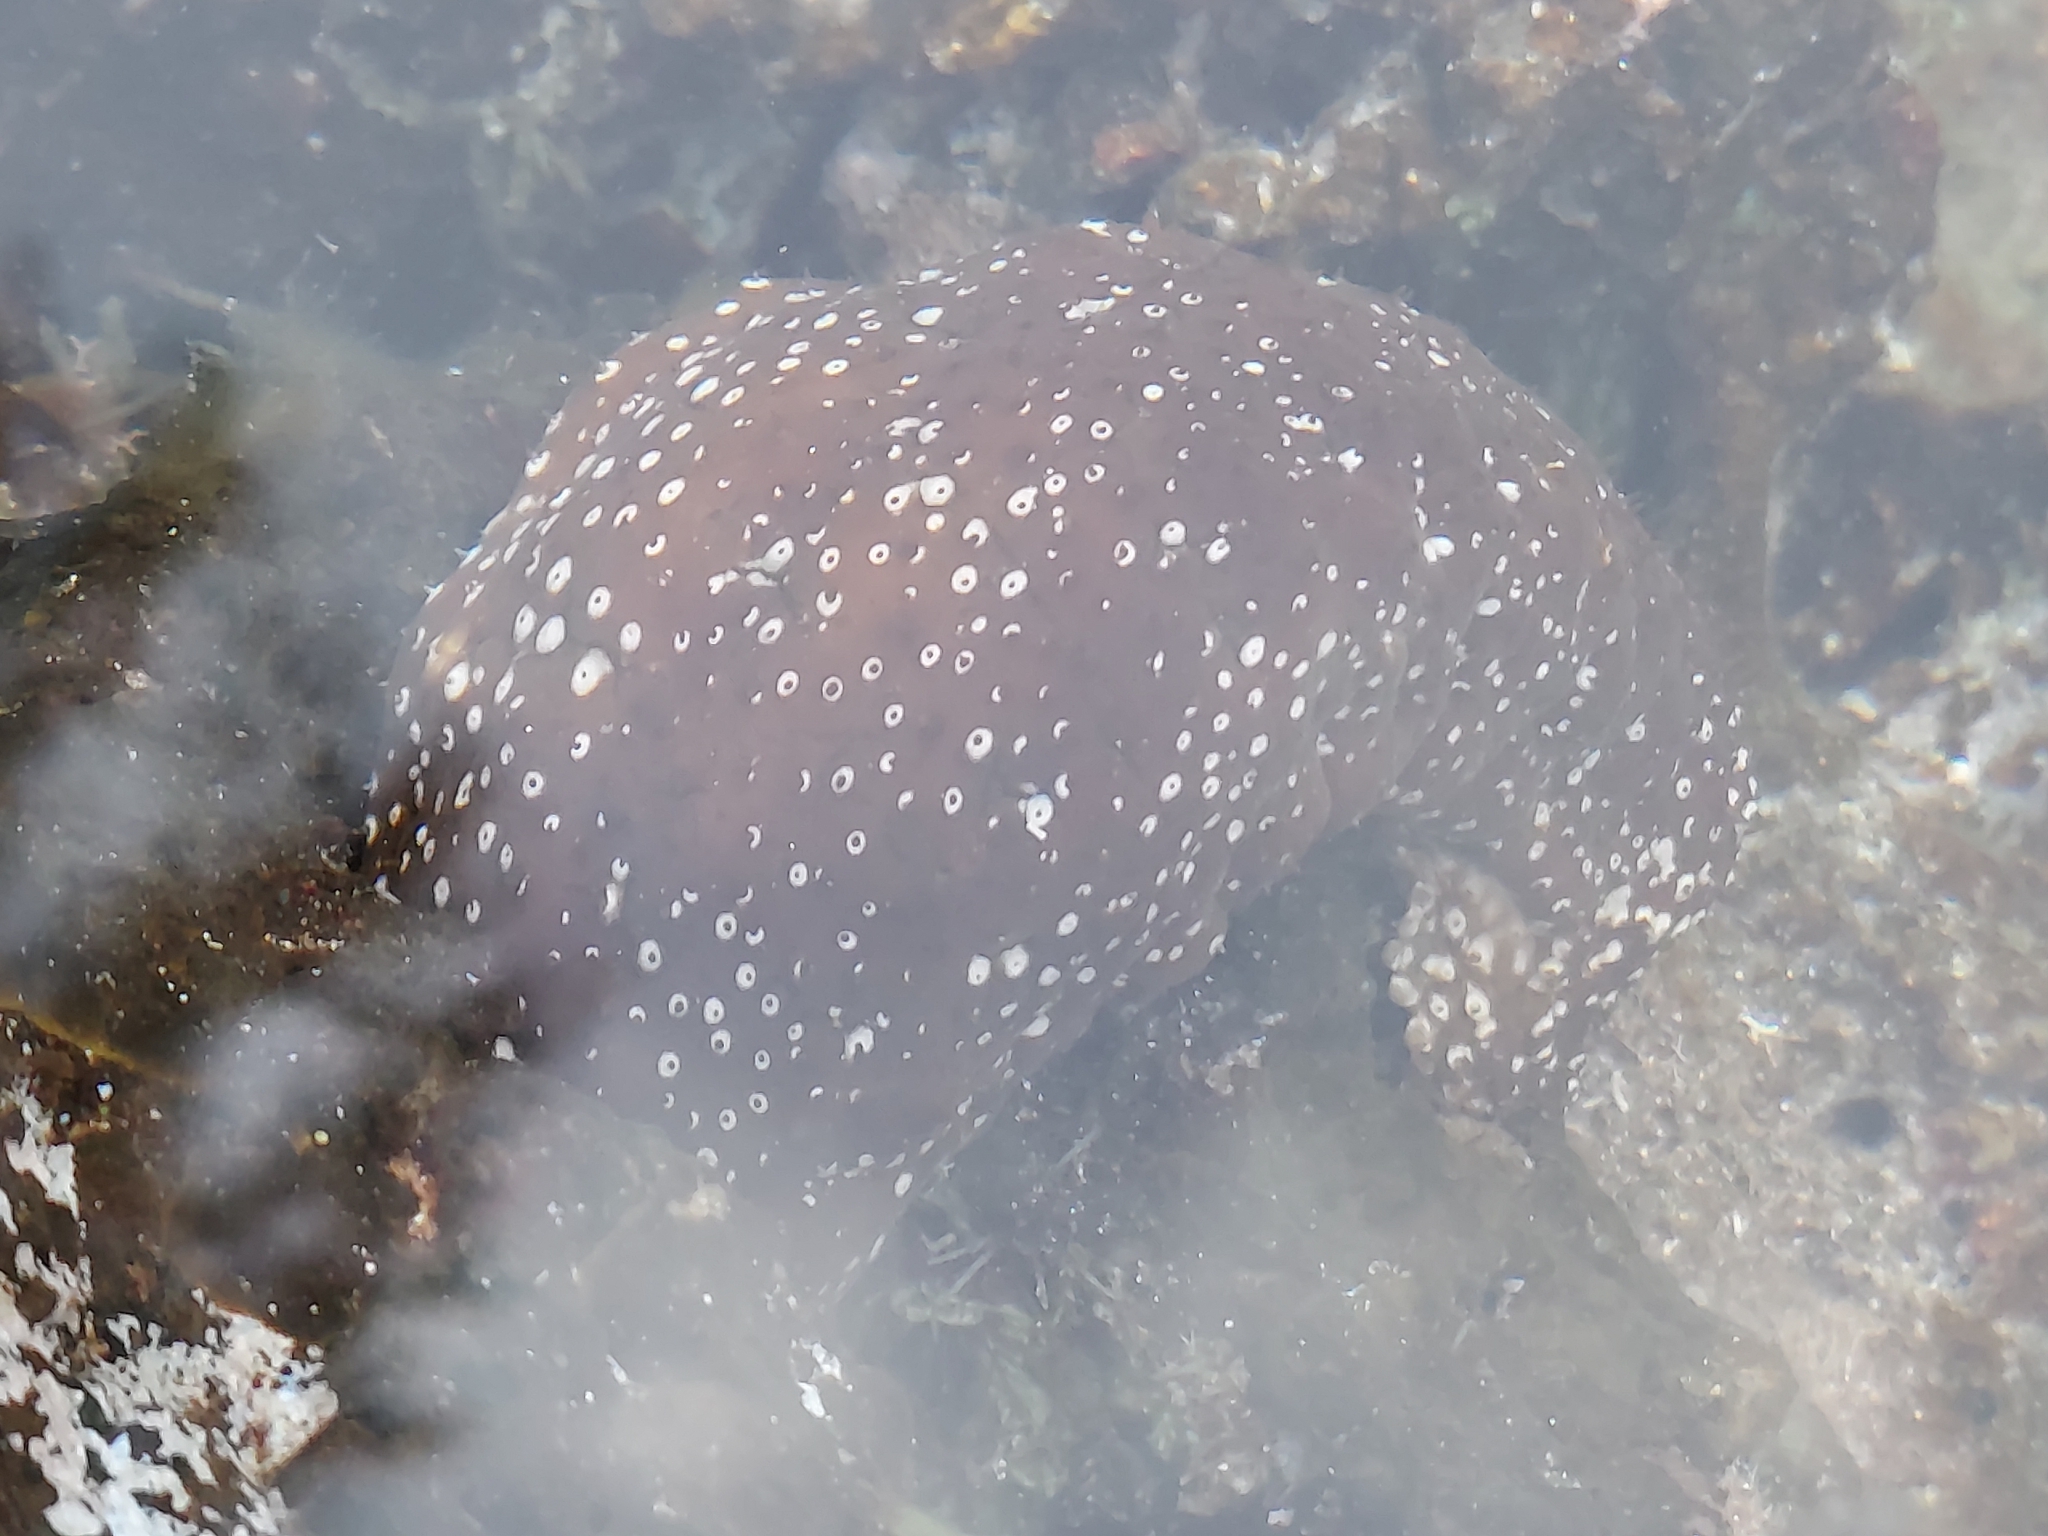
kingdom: Animalia
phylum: Echinodermata
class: Holothuroidea
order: Holothuriida
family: Holothuriidae
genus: Actinopyga
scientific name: Actinopyga varians
